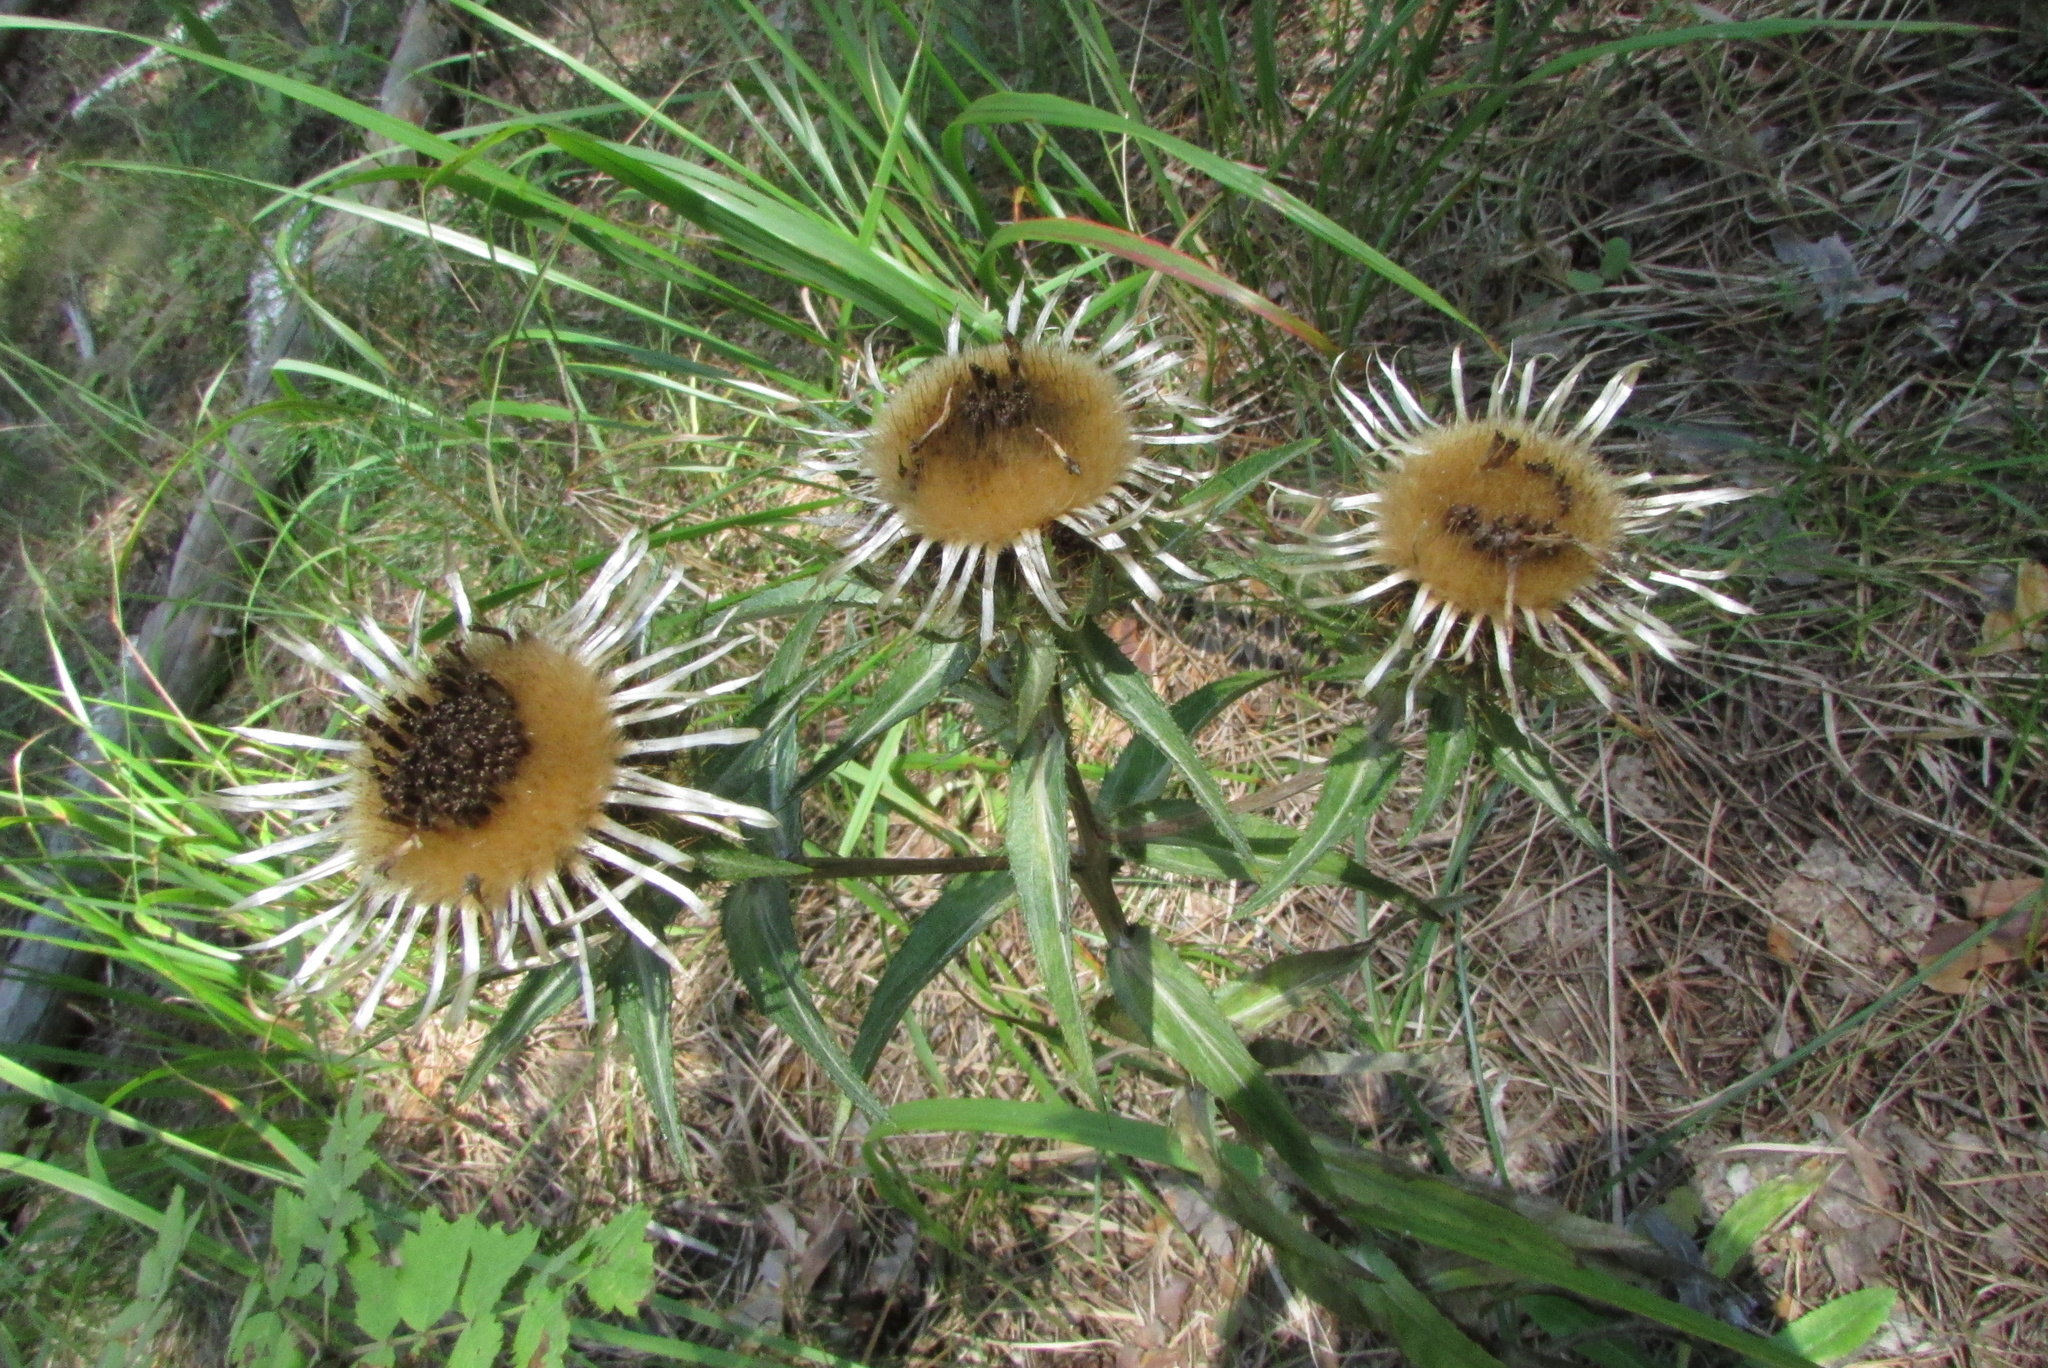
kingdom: Plantae
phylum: Tracheophyta
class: Magnoliopsida
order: Asterales
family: Asteraceae
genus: Carlina
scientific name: Carlina biebersteinii
